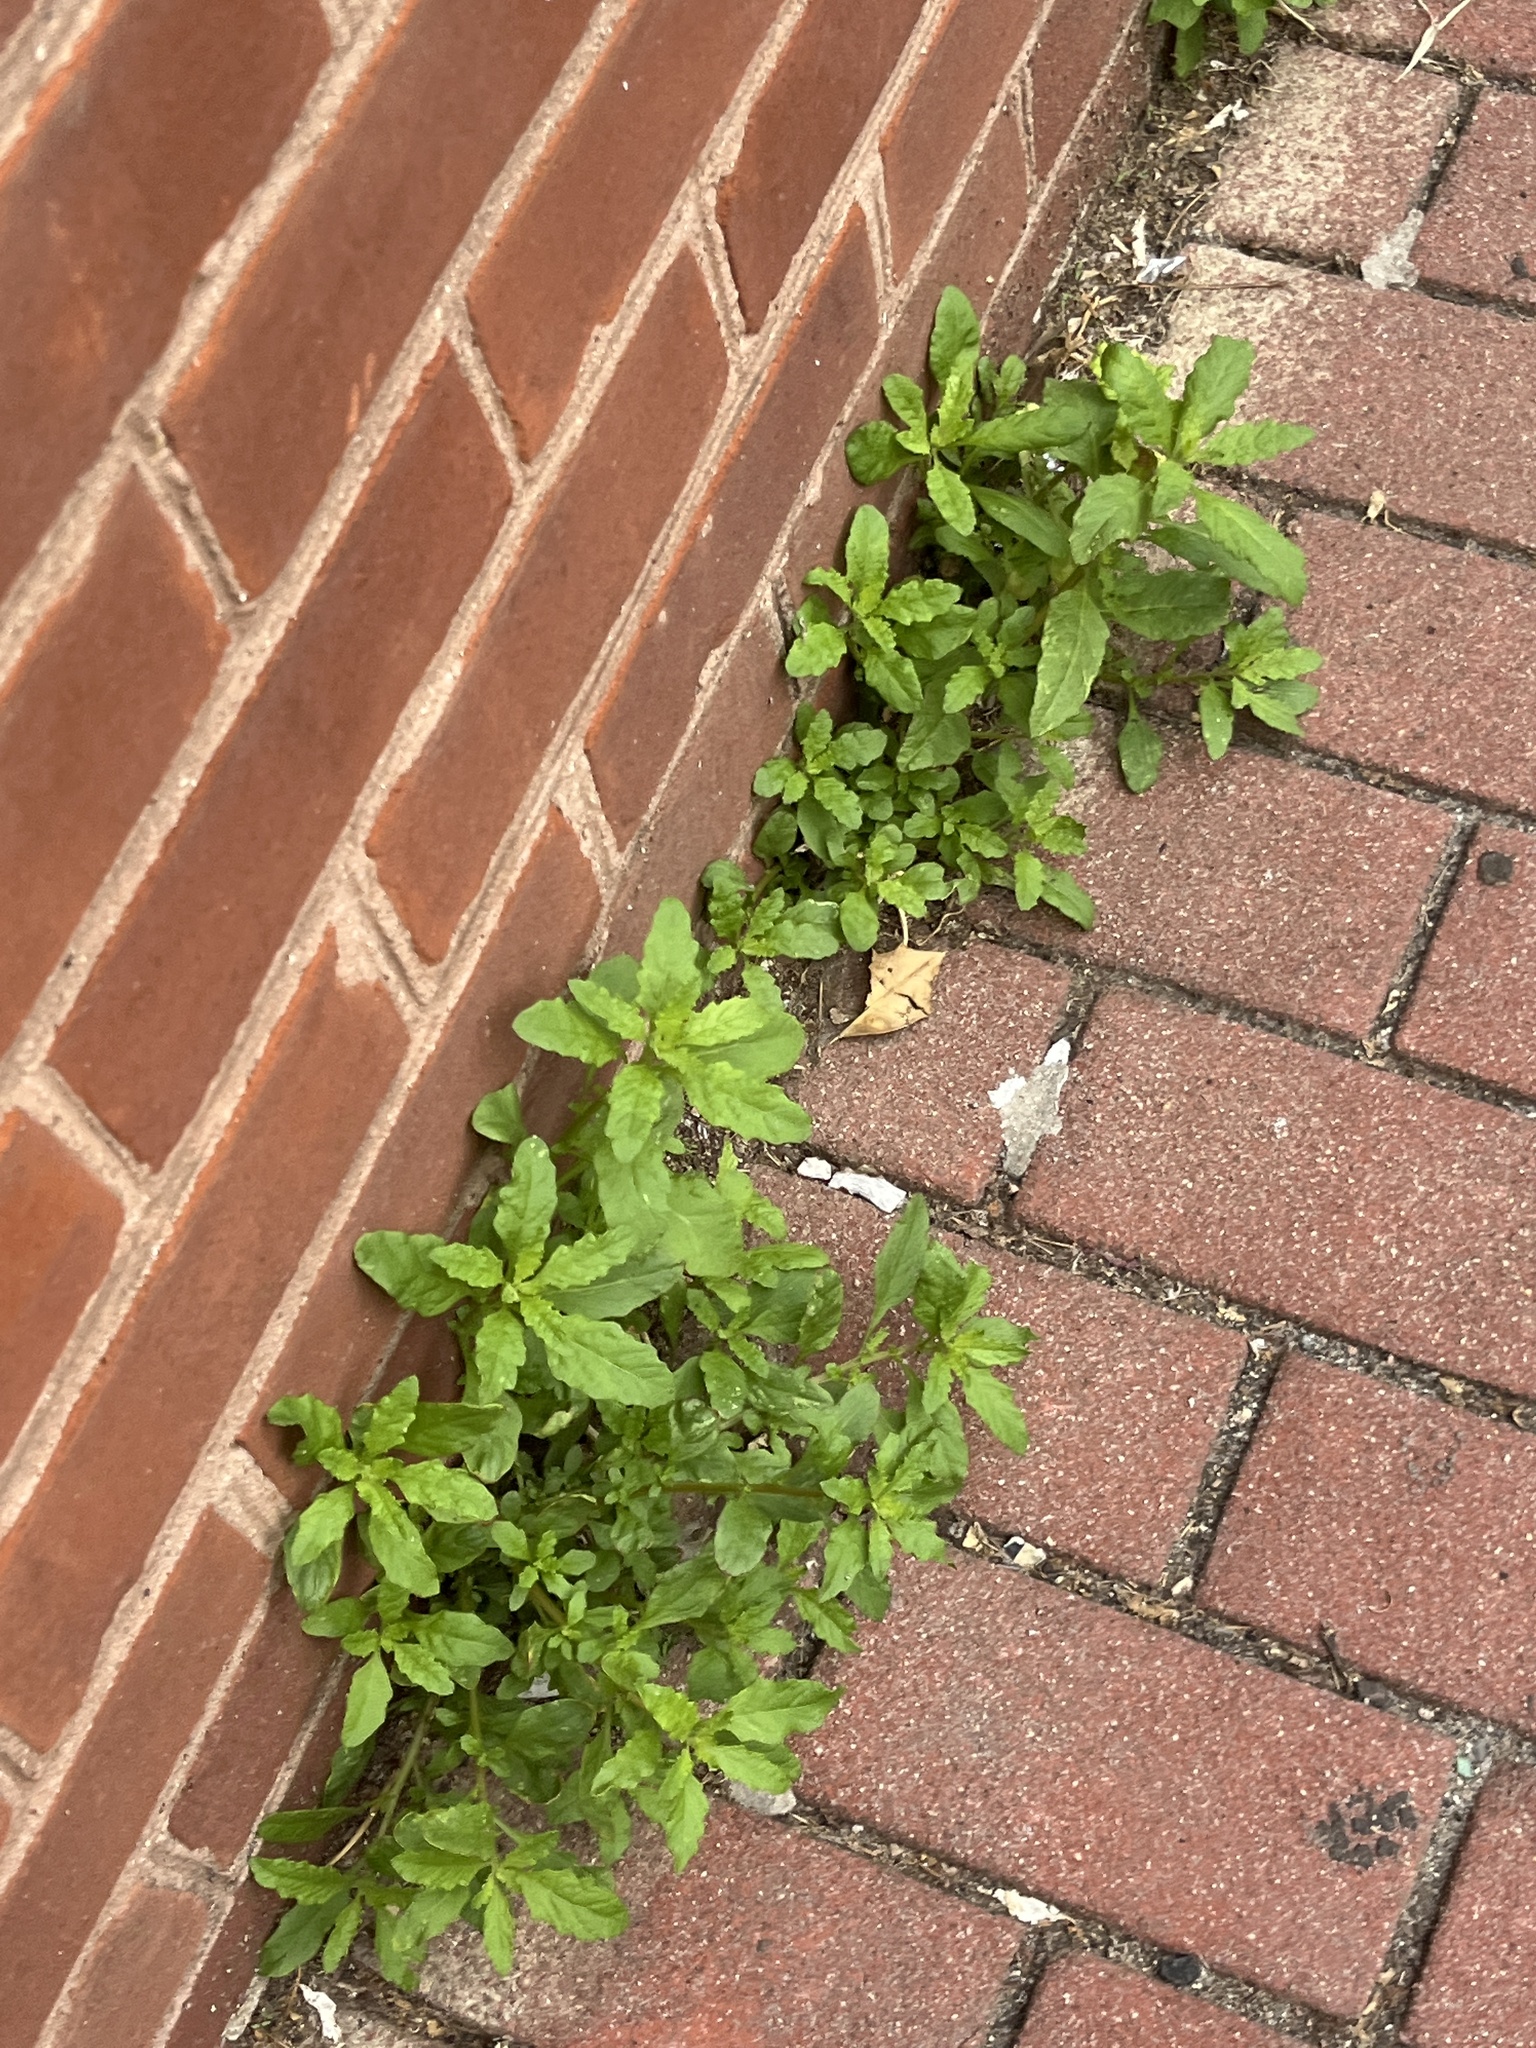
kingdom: Plantae
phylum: Tracheophyta
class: Magnoliopsida
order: Caryophyllales
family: Amaranthaceae
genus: Dysphania
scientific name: Dysphania ambrosioides
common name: Wormseed
